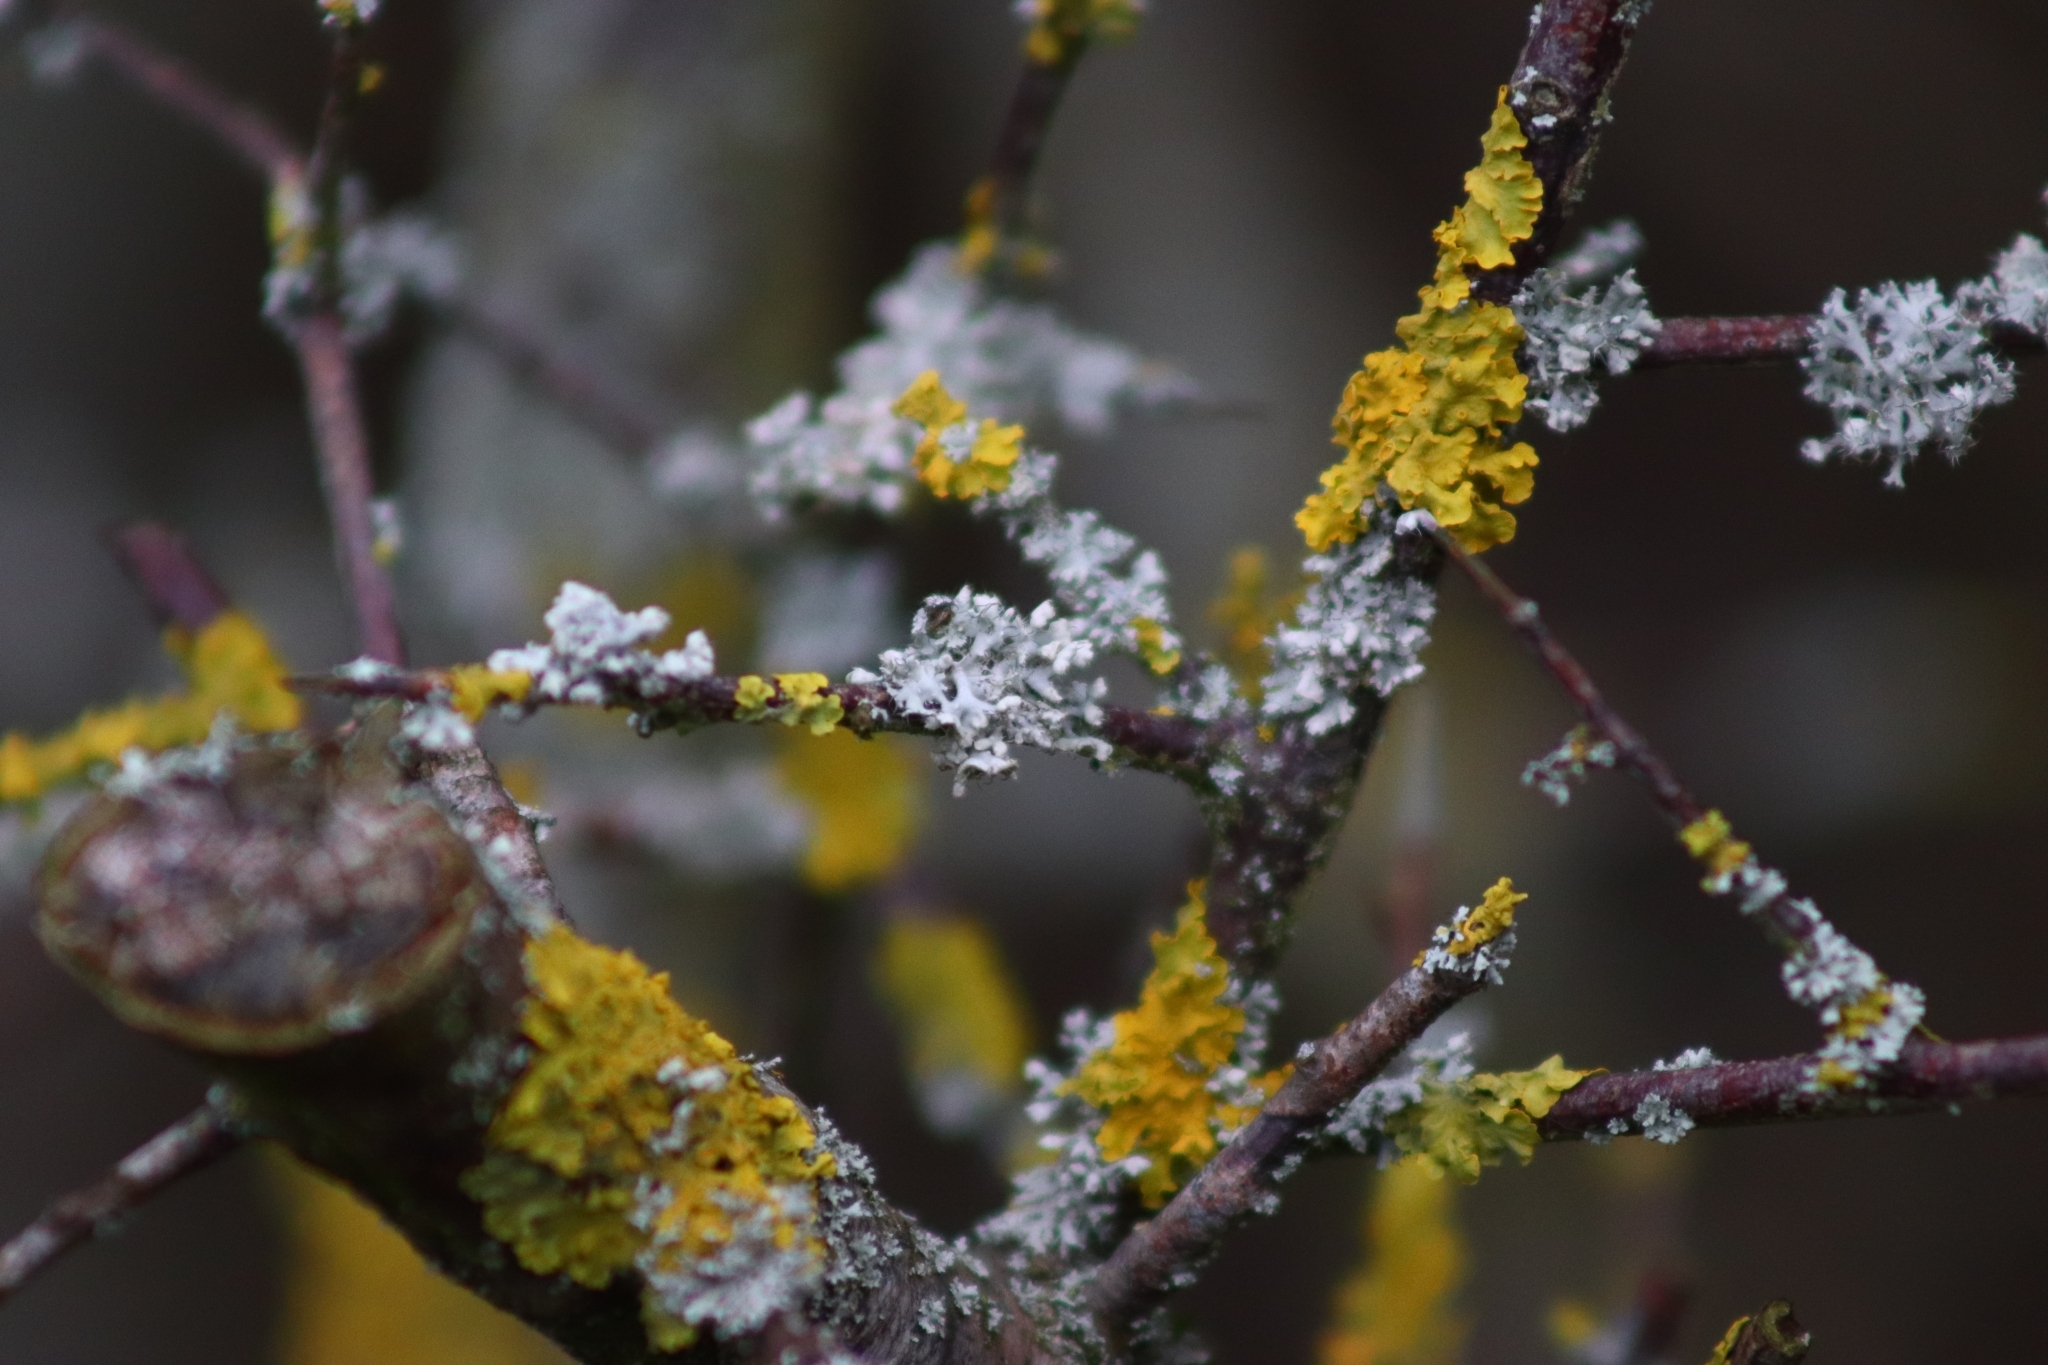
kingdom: Fungi
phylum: Ascomycota
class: Lecanoromycetes
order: Caliciales
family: Physciaceae
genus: Physcia
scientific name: Physcia adscendens
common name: Hooded rosette lichen
